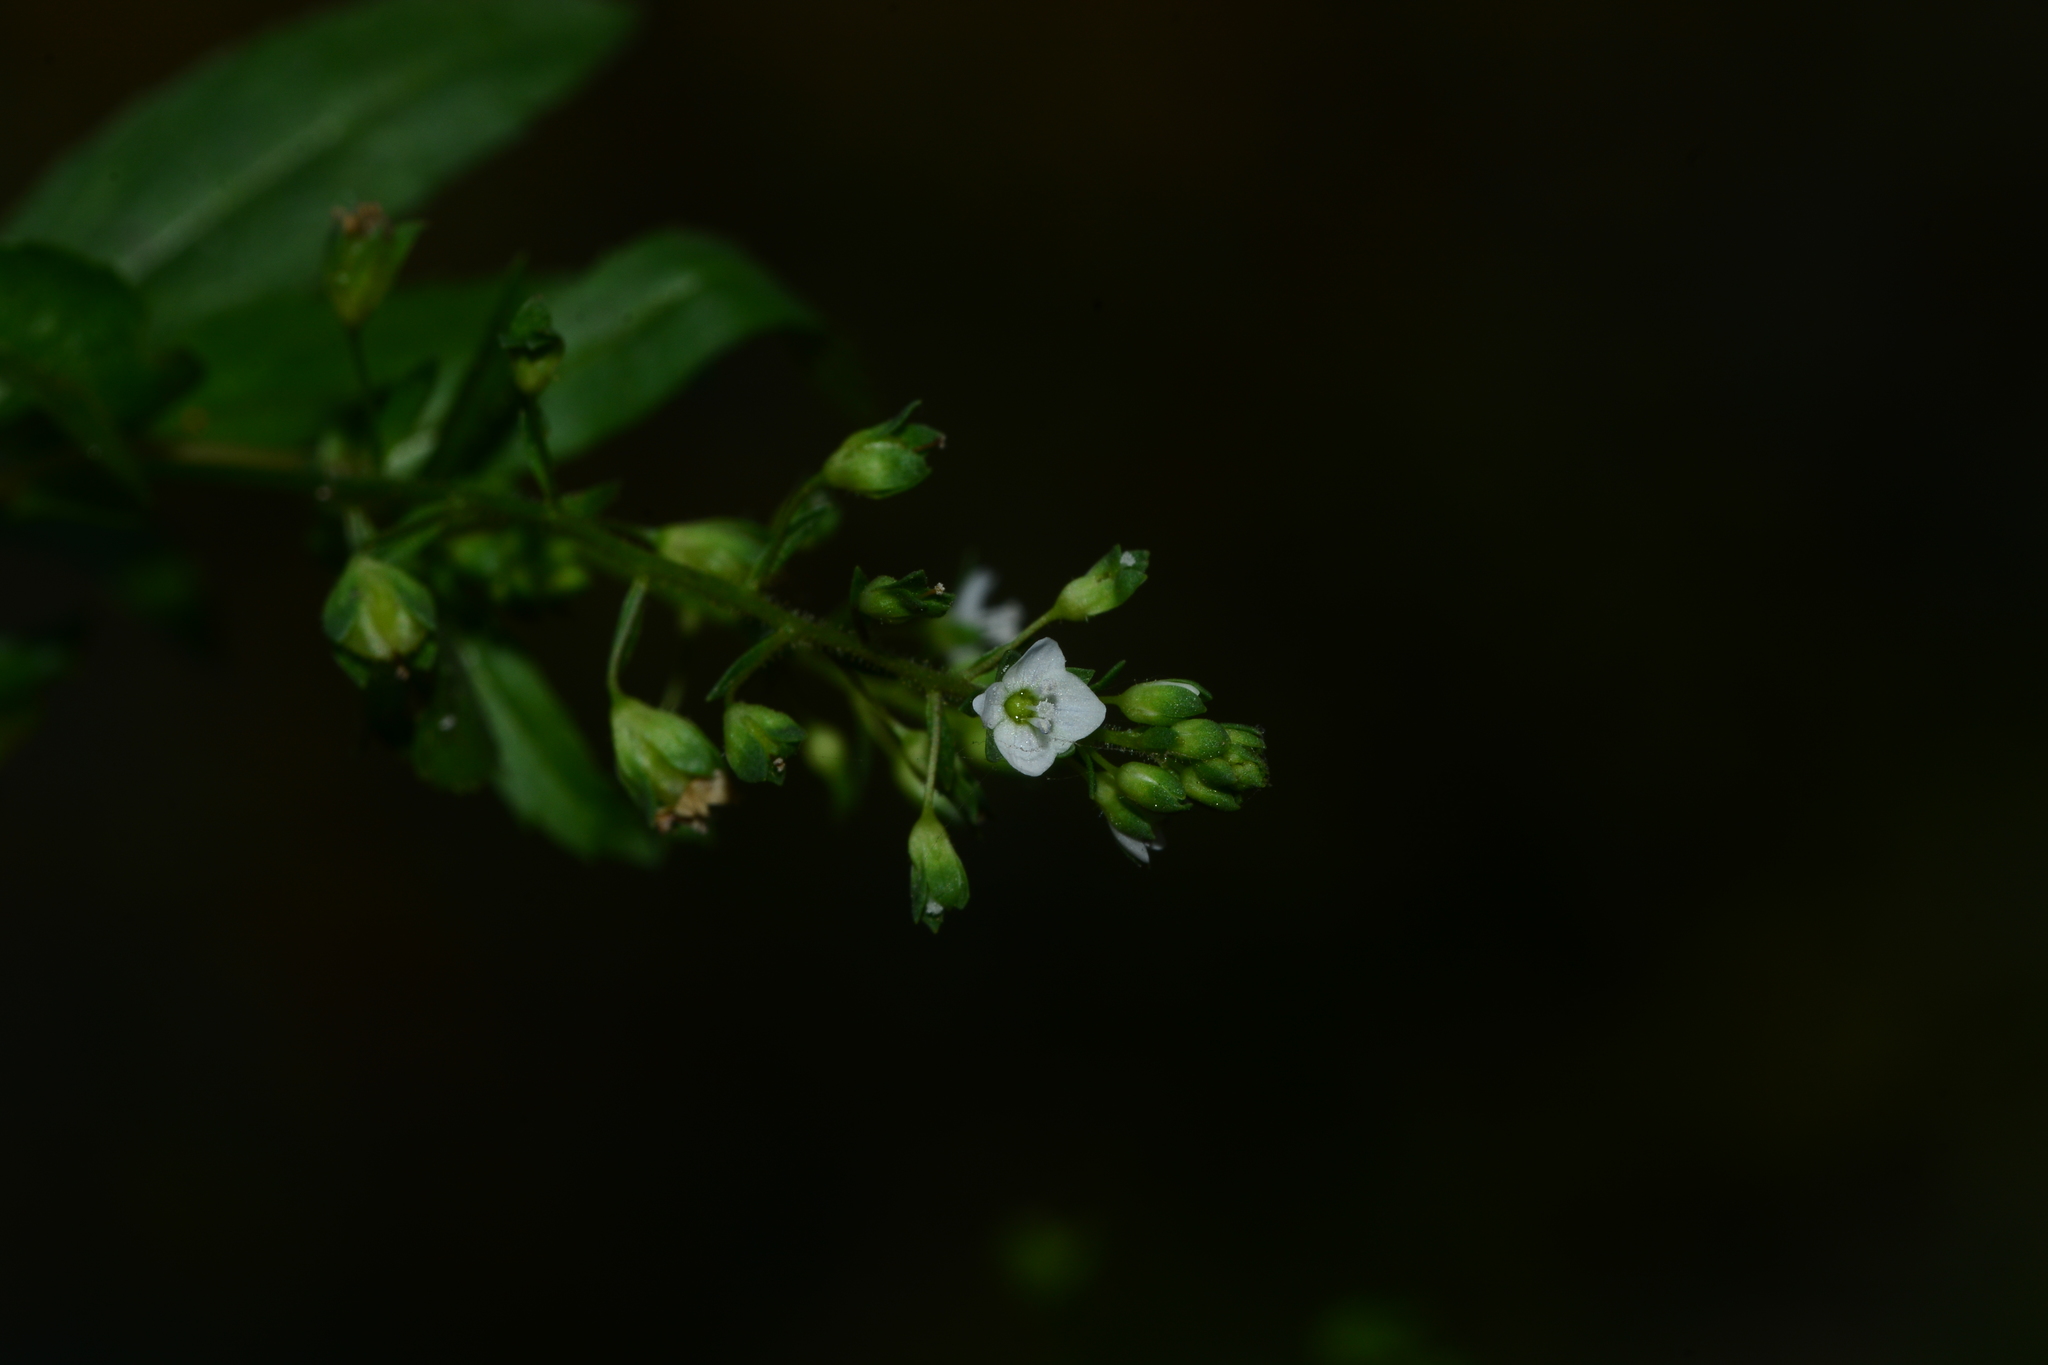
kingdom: Plantae
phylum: Tracheophyta
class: Magnoliopsida
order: Lamiales
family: Plantaginaceae
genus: Veronica
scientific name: Veronica undulata
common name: Undulate speedwell
